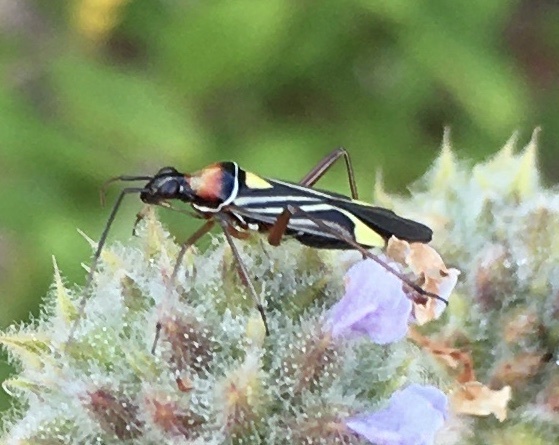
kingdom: Animalia
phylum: Arthropoda
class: Insecta
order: Hemiptera
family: Miridae
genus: Closterocoris
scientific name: Closterocoris amoenus
